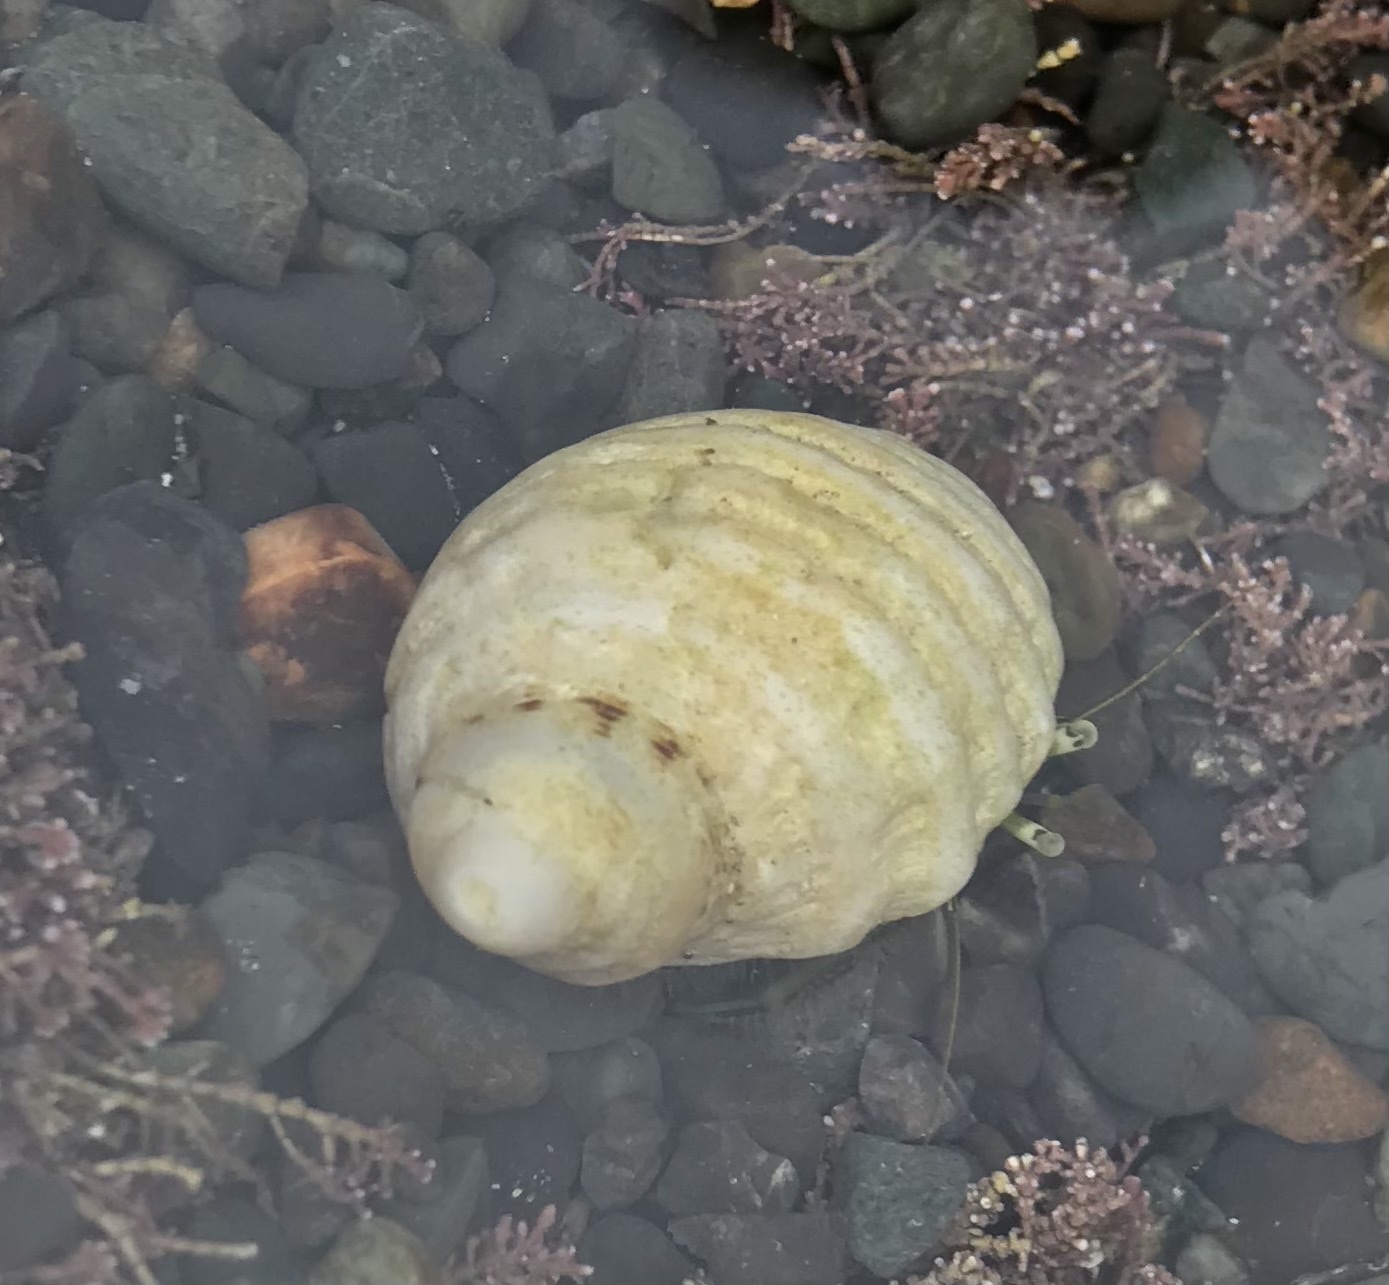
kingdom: Animalia
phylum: Mollusca
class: Gastropoda
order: Neogastropoda
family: Muricidae
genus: Dicathais
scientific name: Dicathais orbita
